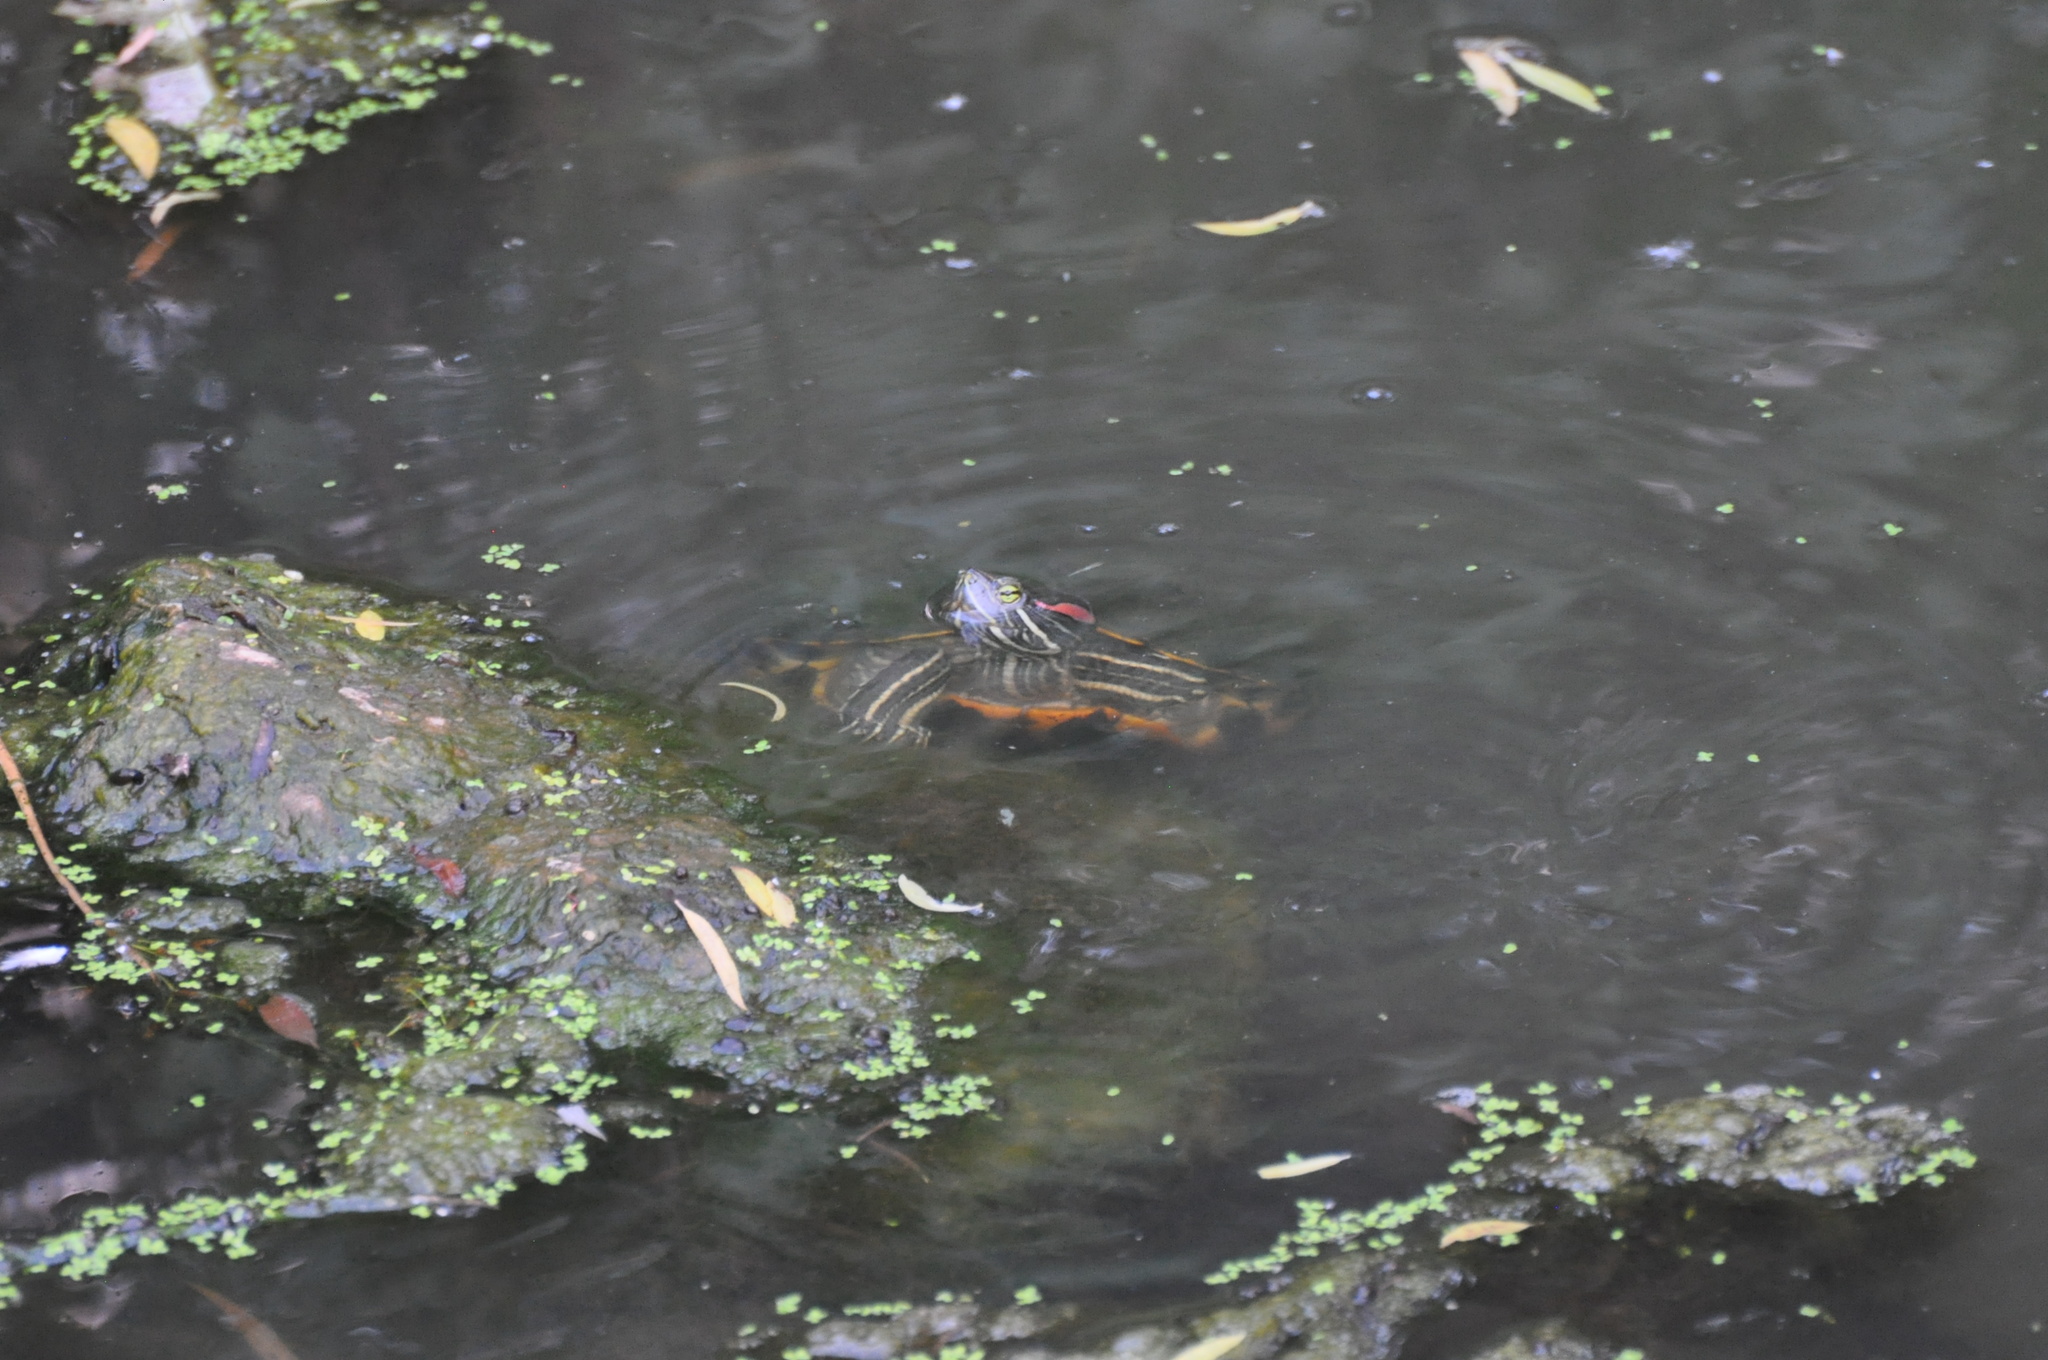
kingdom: Animalia
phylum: Chordata
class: Testudines
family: Emydidae
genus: Trachemys
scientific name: Trachemys scripta
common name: Slider
